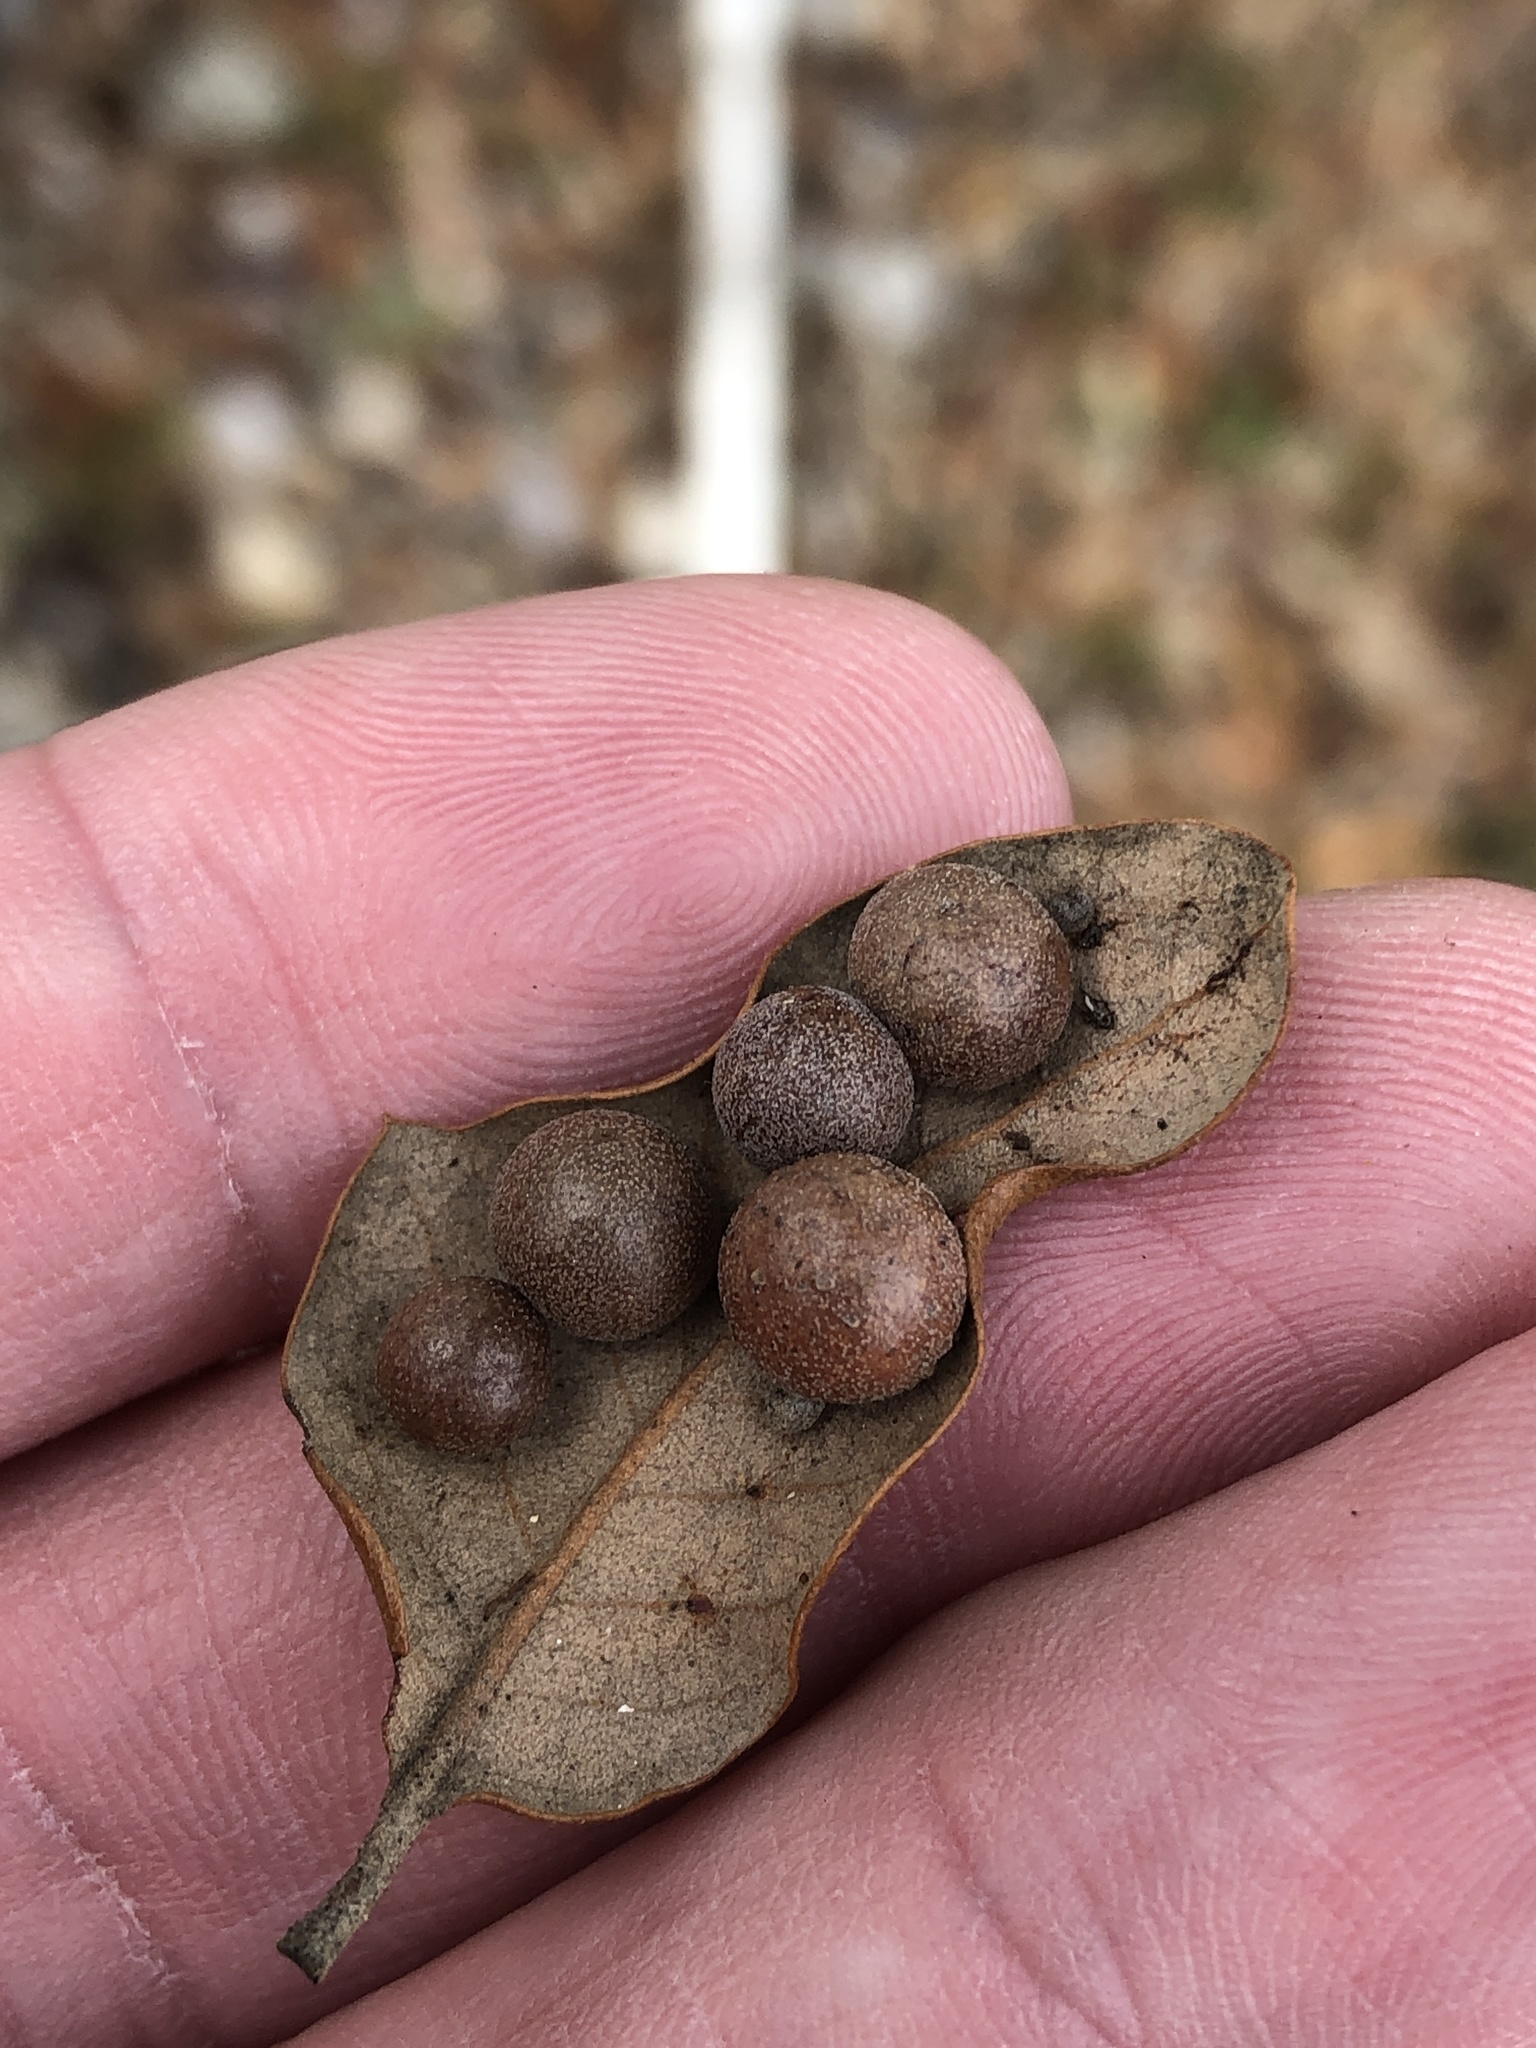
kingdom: Animalia
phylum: Arthropoda
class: Insecta
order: Hymenoptera
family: Cynipidae
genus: Belonocnema
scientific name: Belonocnema kinseyi
